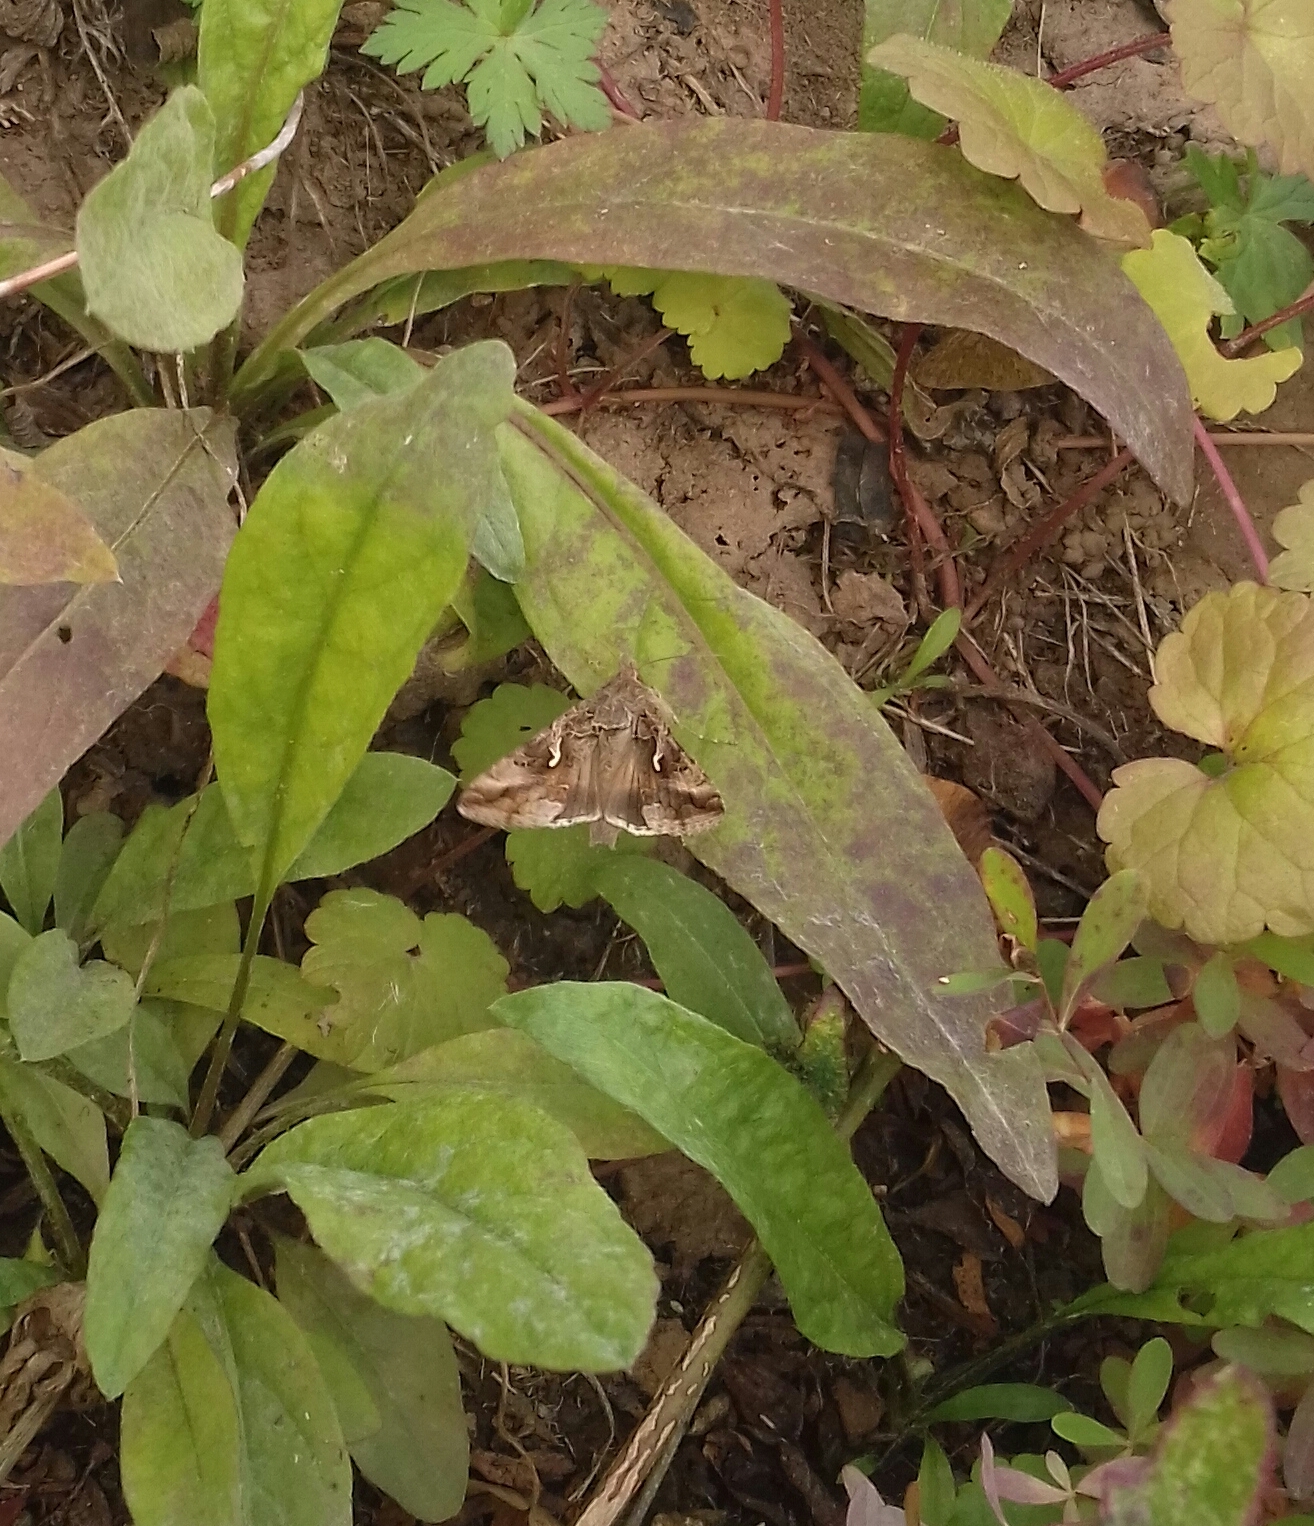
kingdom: Animalia
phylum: Arthropoda
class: Insecta
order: Lepidoptera
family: Noctuidae
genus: Autographa
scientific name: Autographa gamma
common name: Silver y
